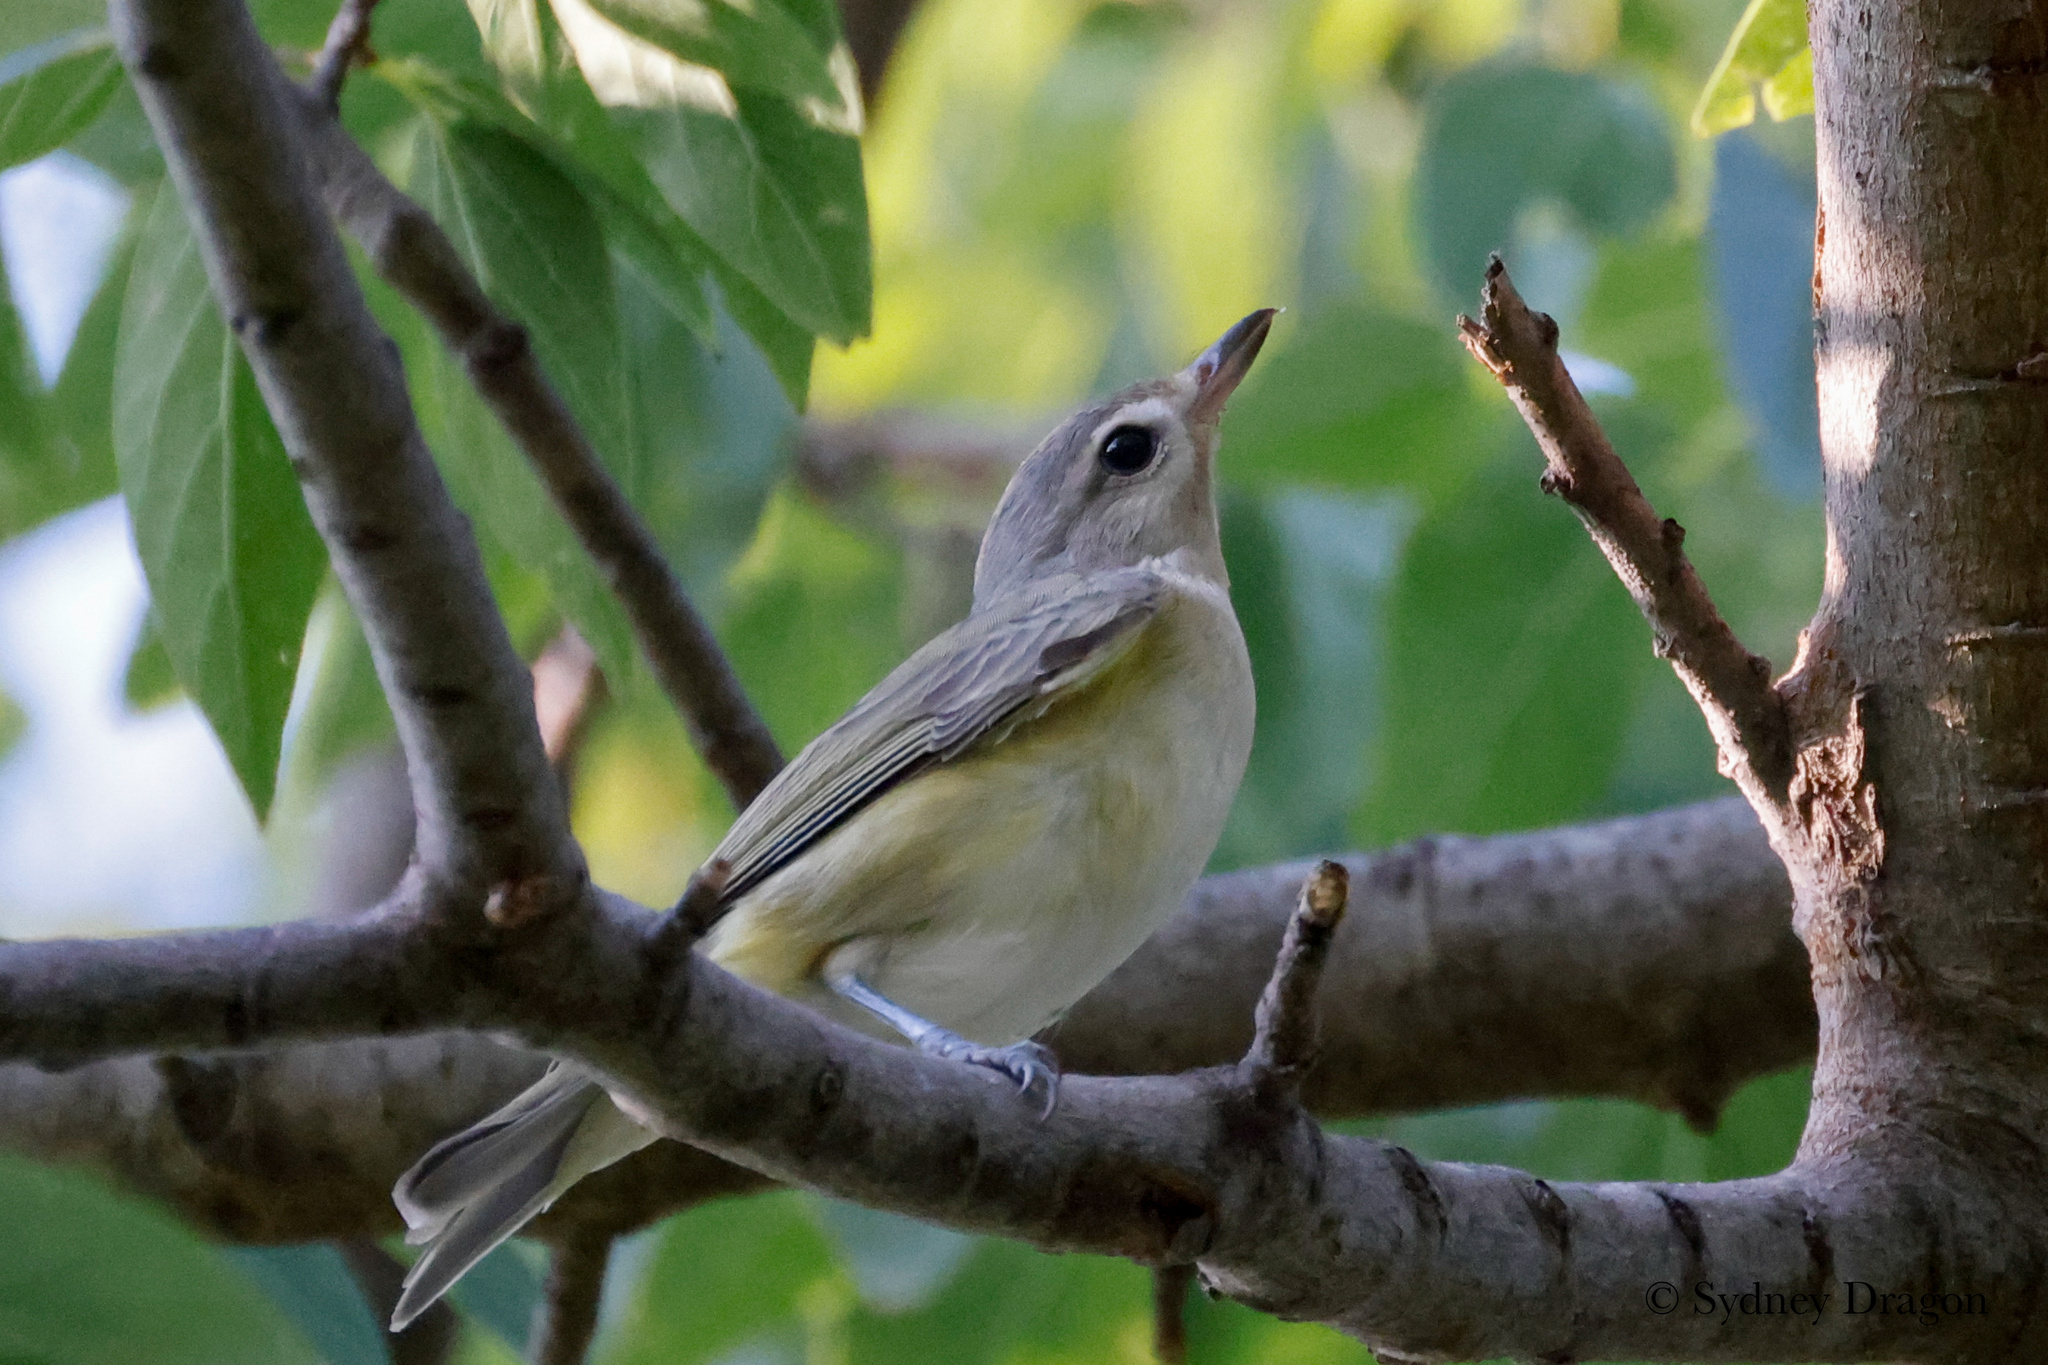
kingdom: Animalia
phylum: Chordata
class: Aves
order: Passeriformes
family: Vireonidae
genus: Vireo
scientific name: Vireo gilvus
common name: Warbling vireo
